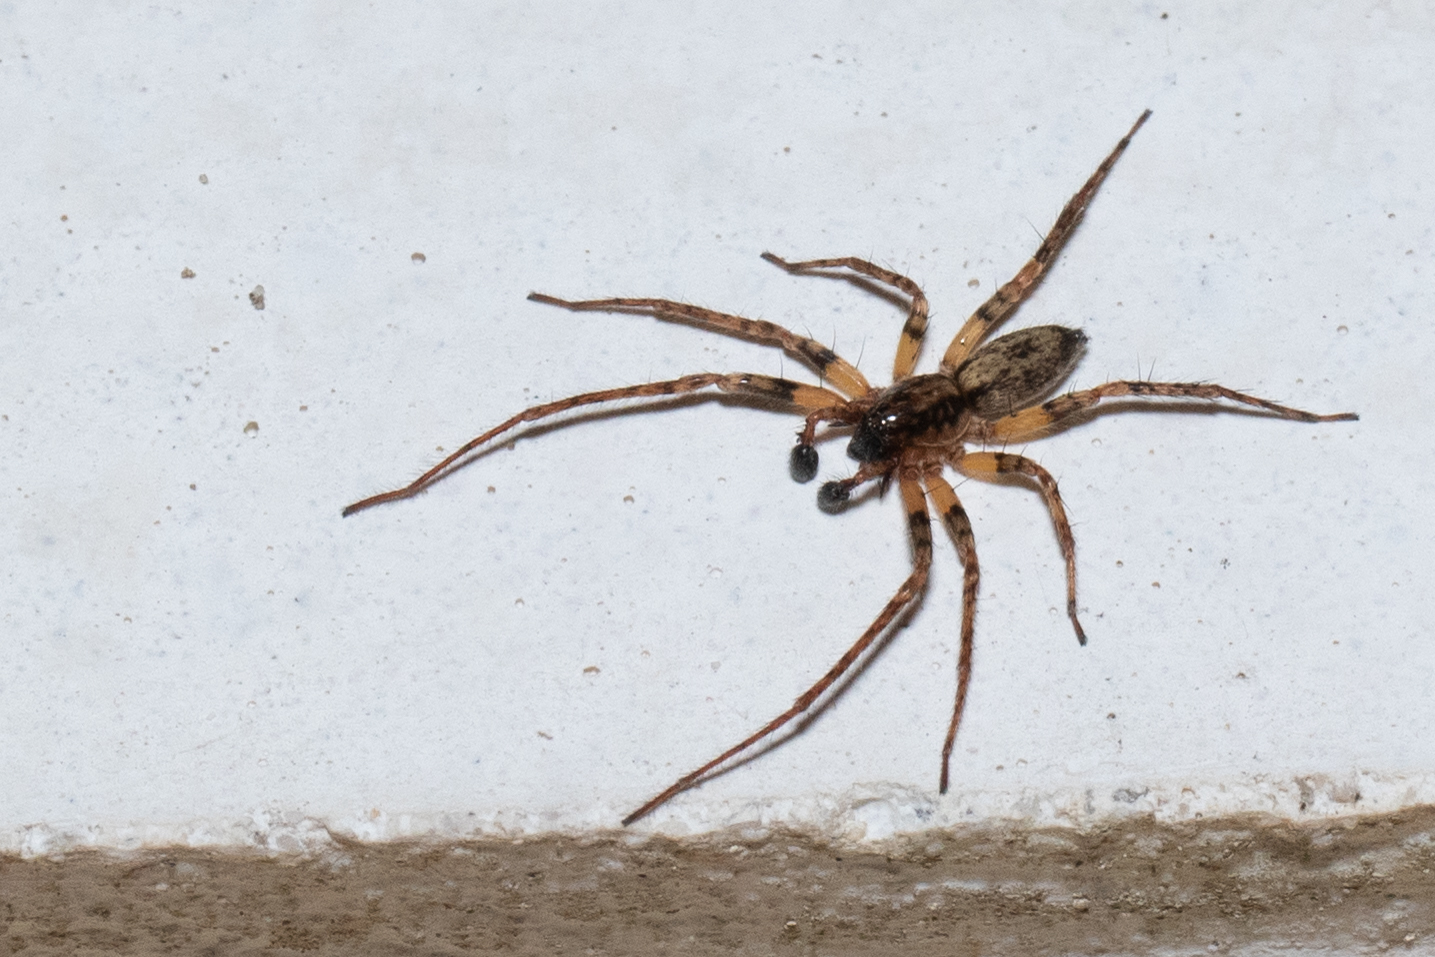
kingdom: Animalia
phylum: Arthropoda
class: Arachnida
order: Araneae
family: Anyphaenidae
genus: Anyphaena
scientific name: Anyphaena accentuata
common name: Buzzing spider
